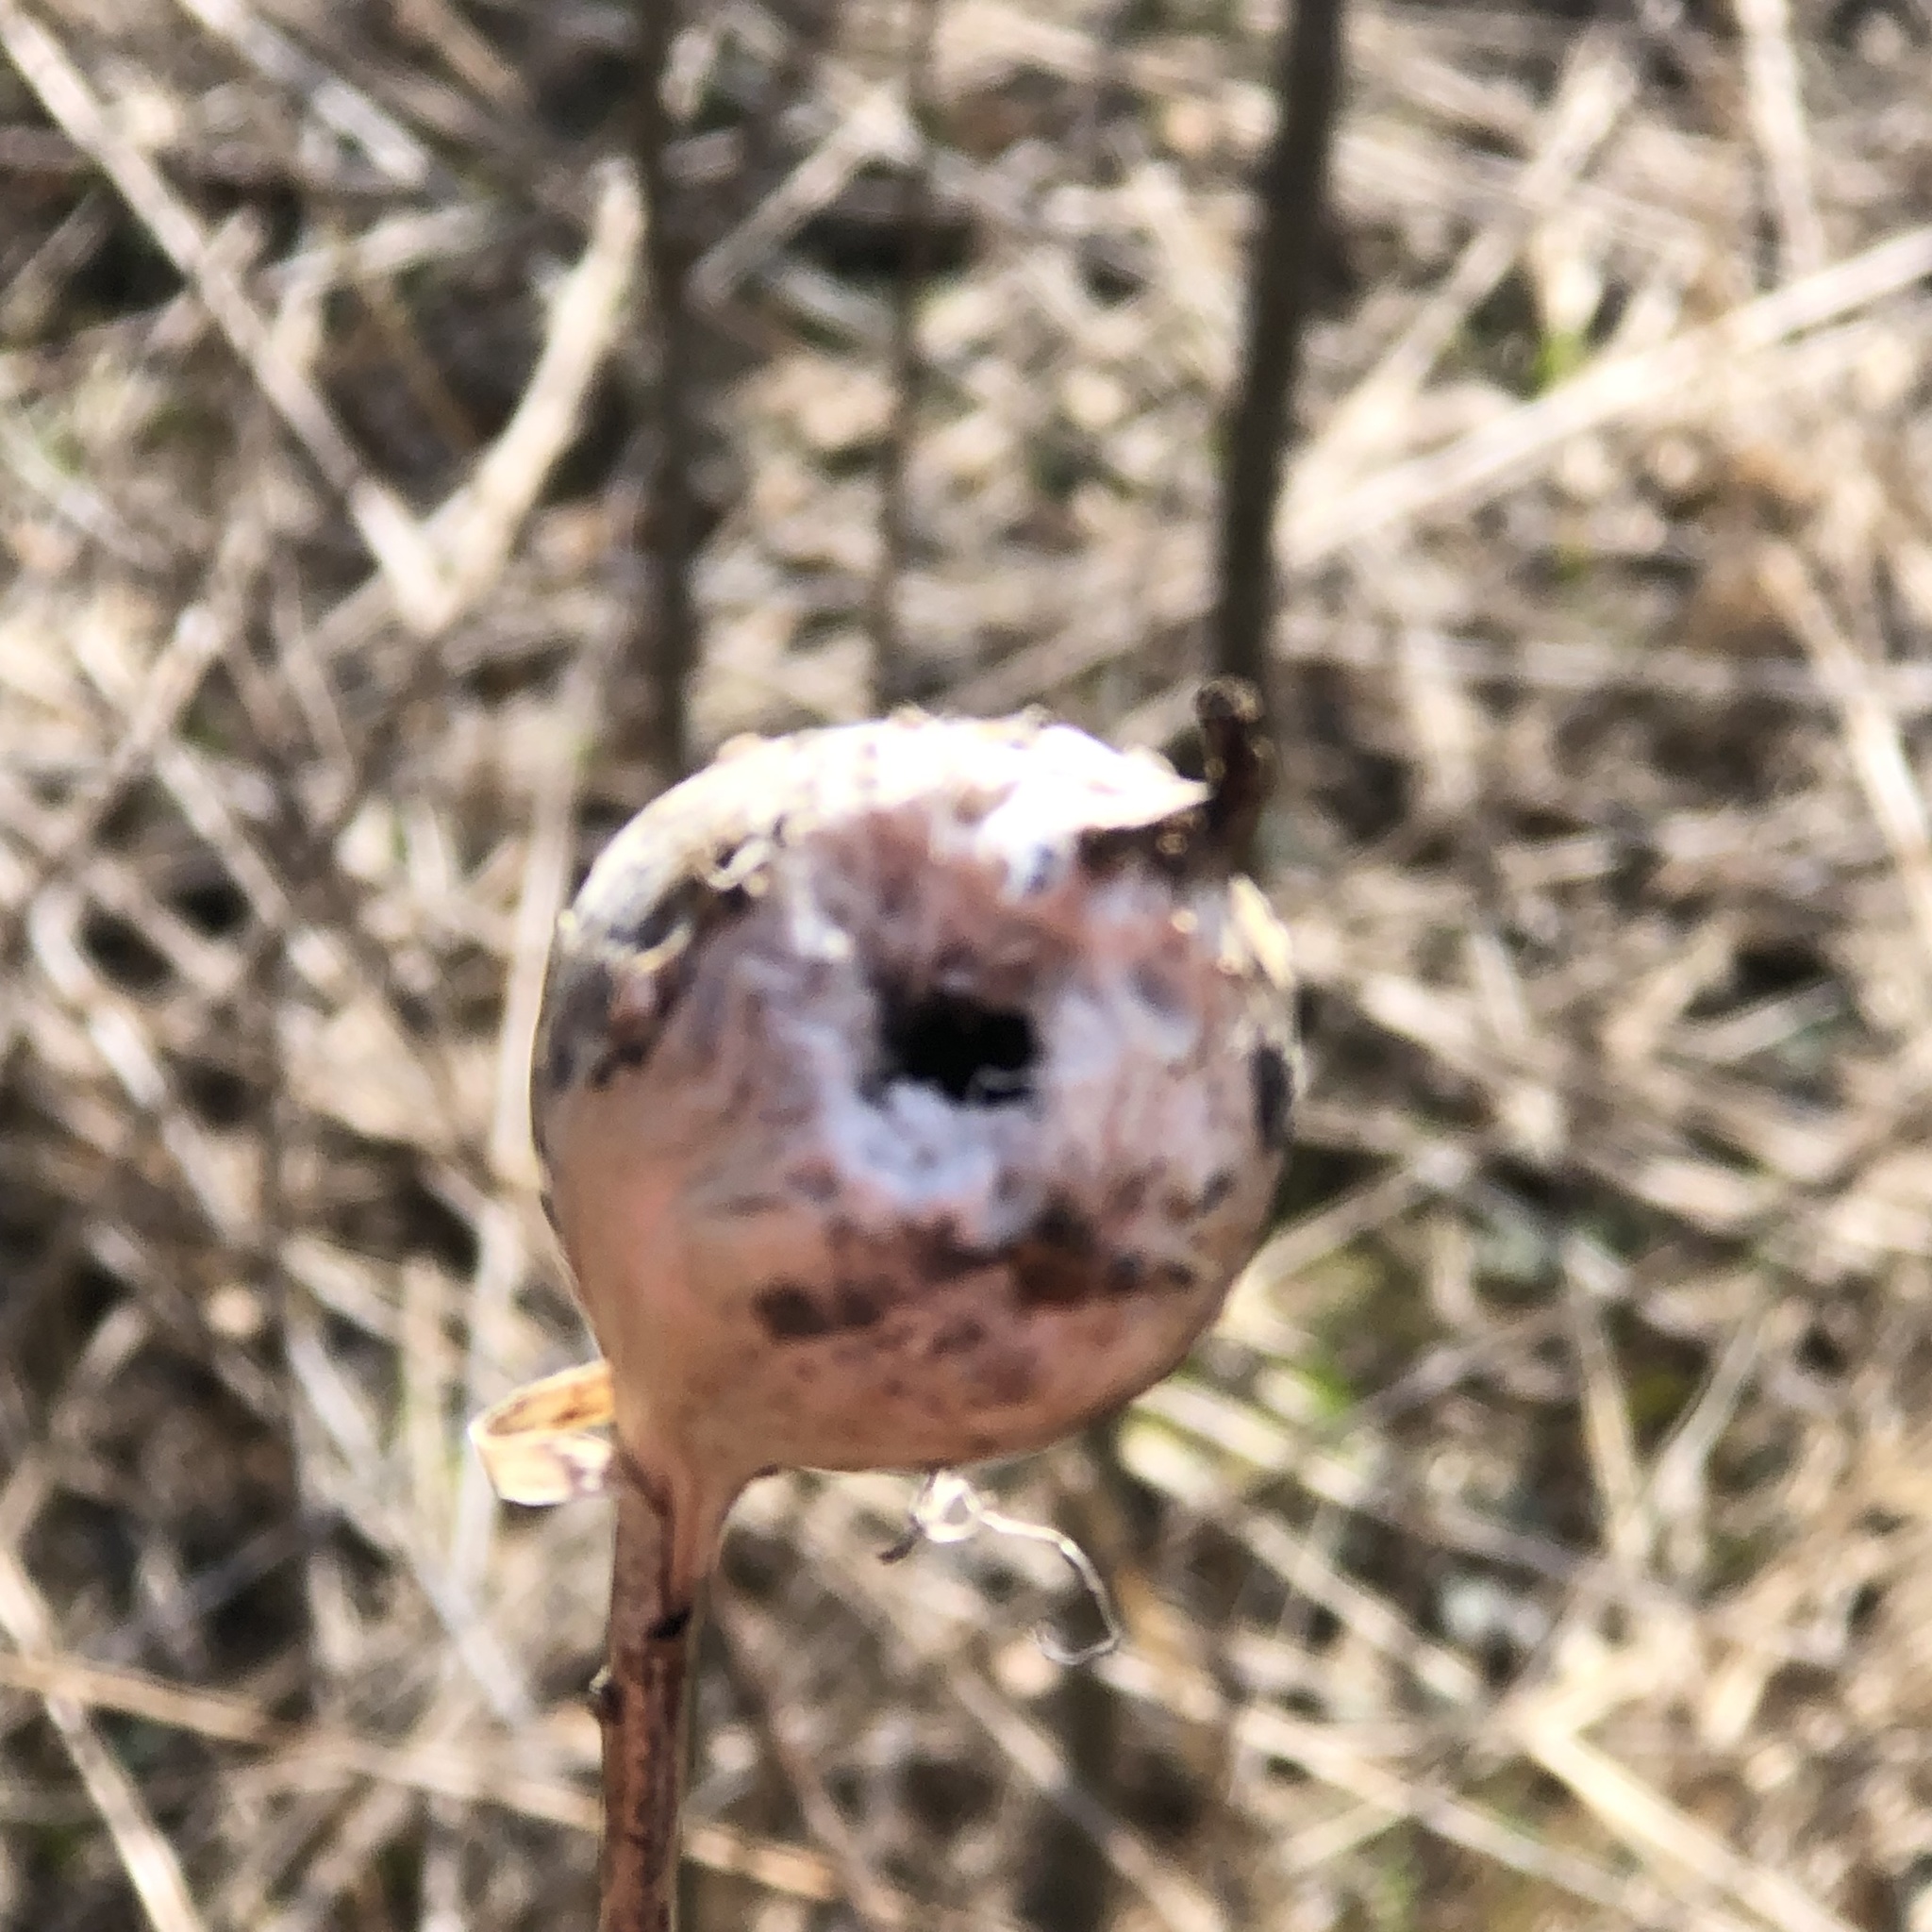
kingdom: Animalia
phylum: Arthropoda
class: Insecta
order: Diptera
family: Tephritidae
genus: Eurosta
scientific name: Eurosta solidaginis
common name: Goldenrod gall fly
